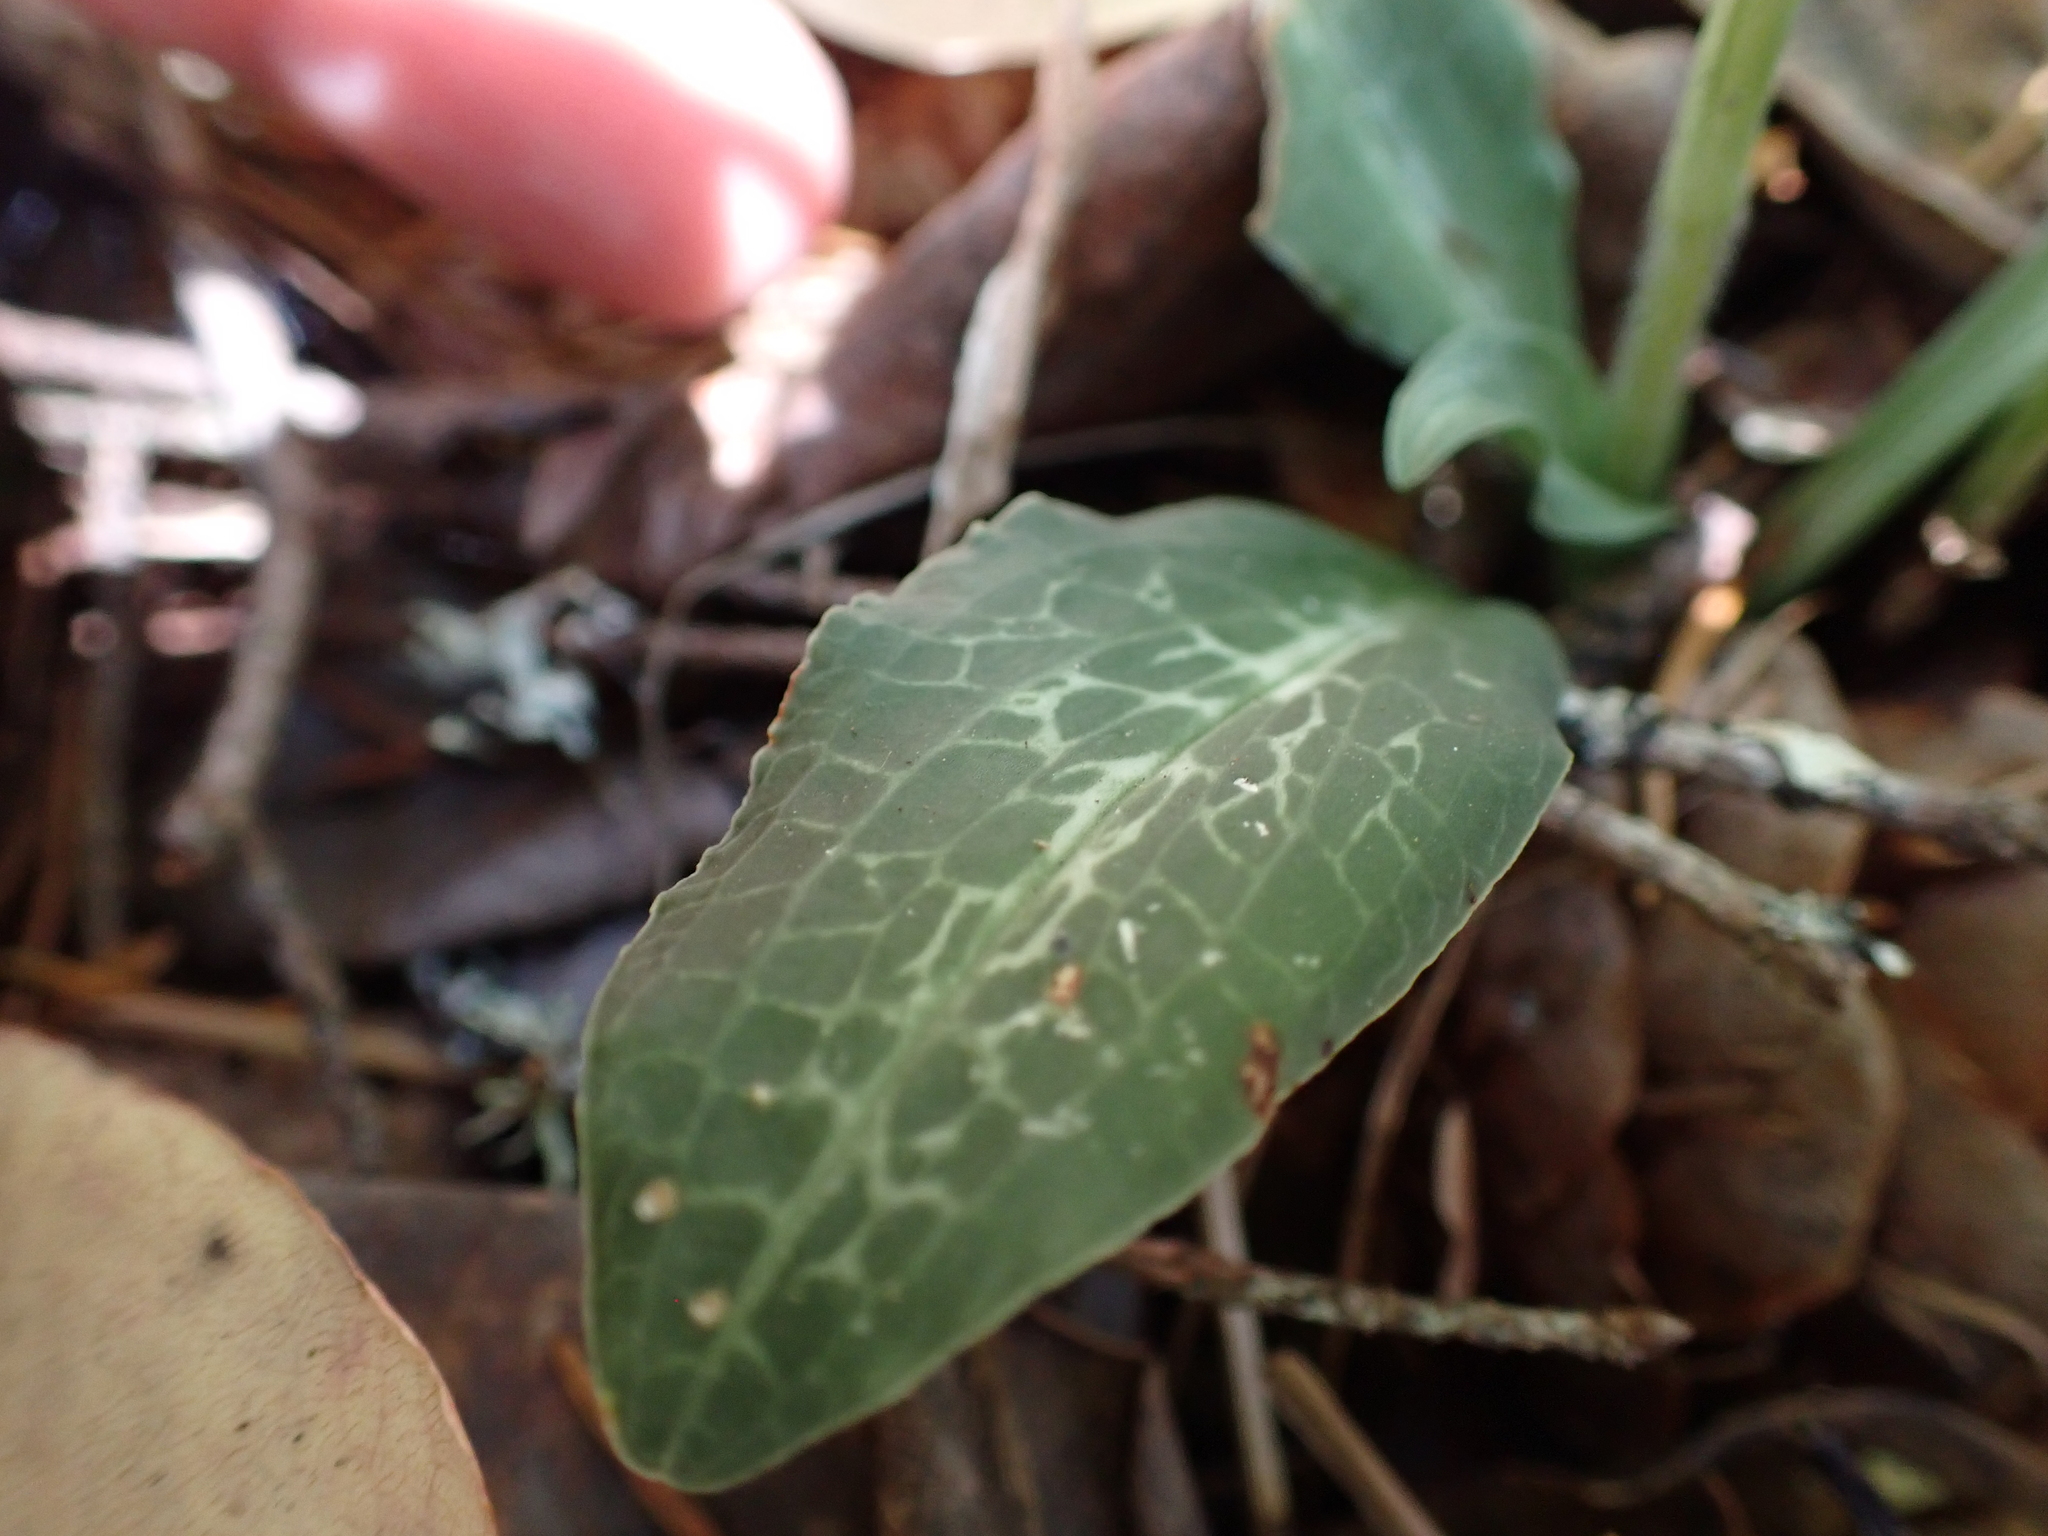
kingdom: Plantae
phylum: Tracheophyta
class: Liliopsida
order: Asparagales
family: Orchidaceae
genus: Goodyera
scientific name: Goodyera oblongifolia
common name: Giant rattlesnake-plantain
